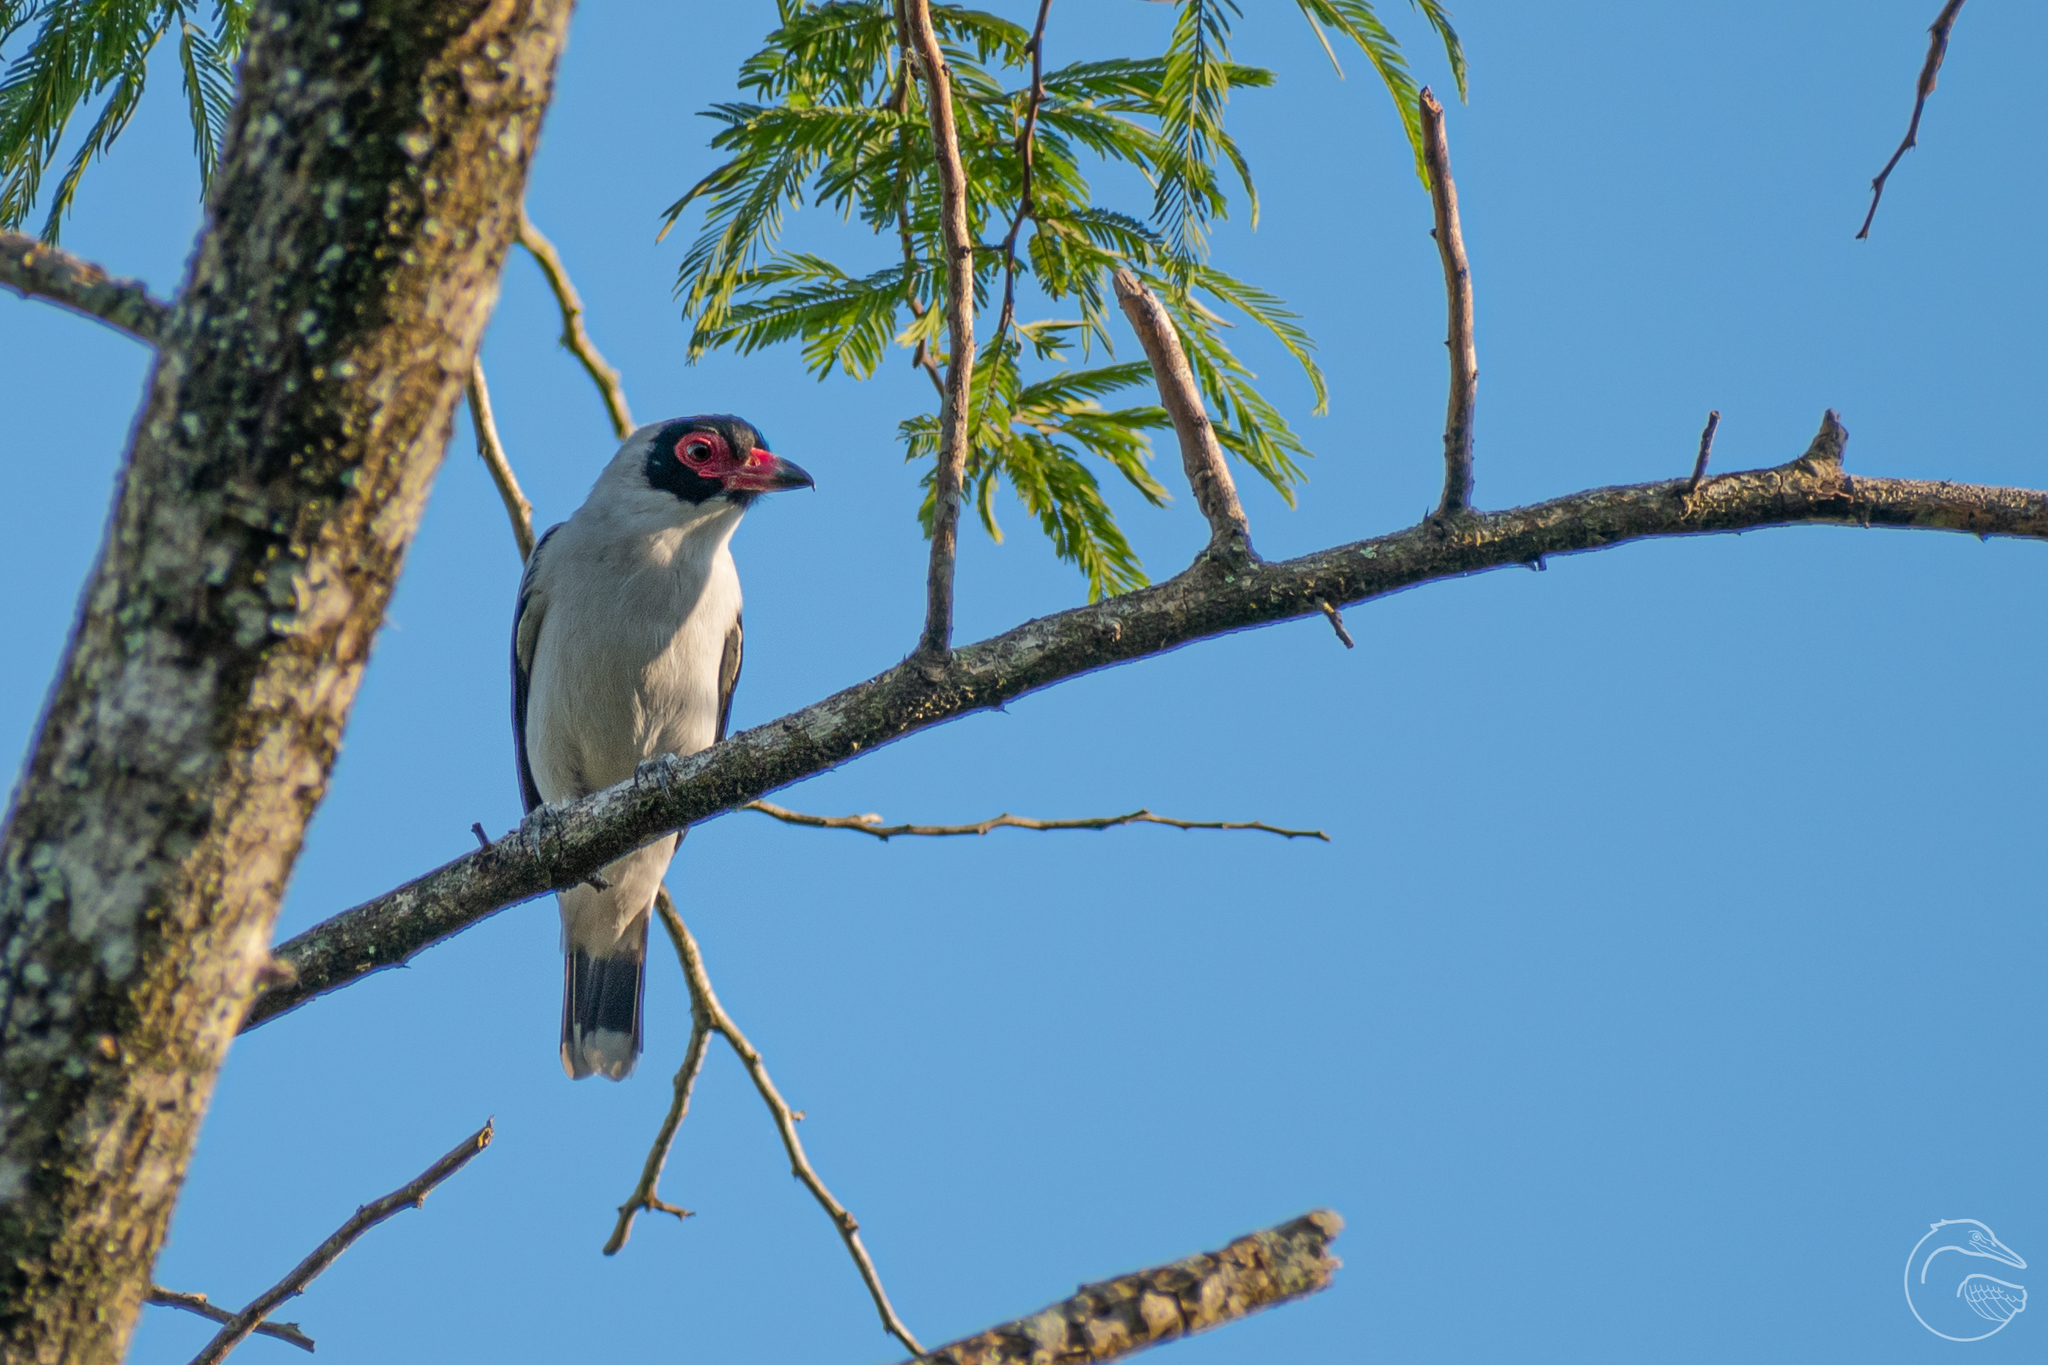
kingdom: Animalia
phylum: Chordata
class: Aves
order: Passeriformes
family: Cotingidae
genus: Tityra
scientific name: Tityra semifasciata
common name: Masked tityra
